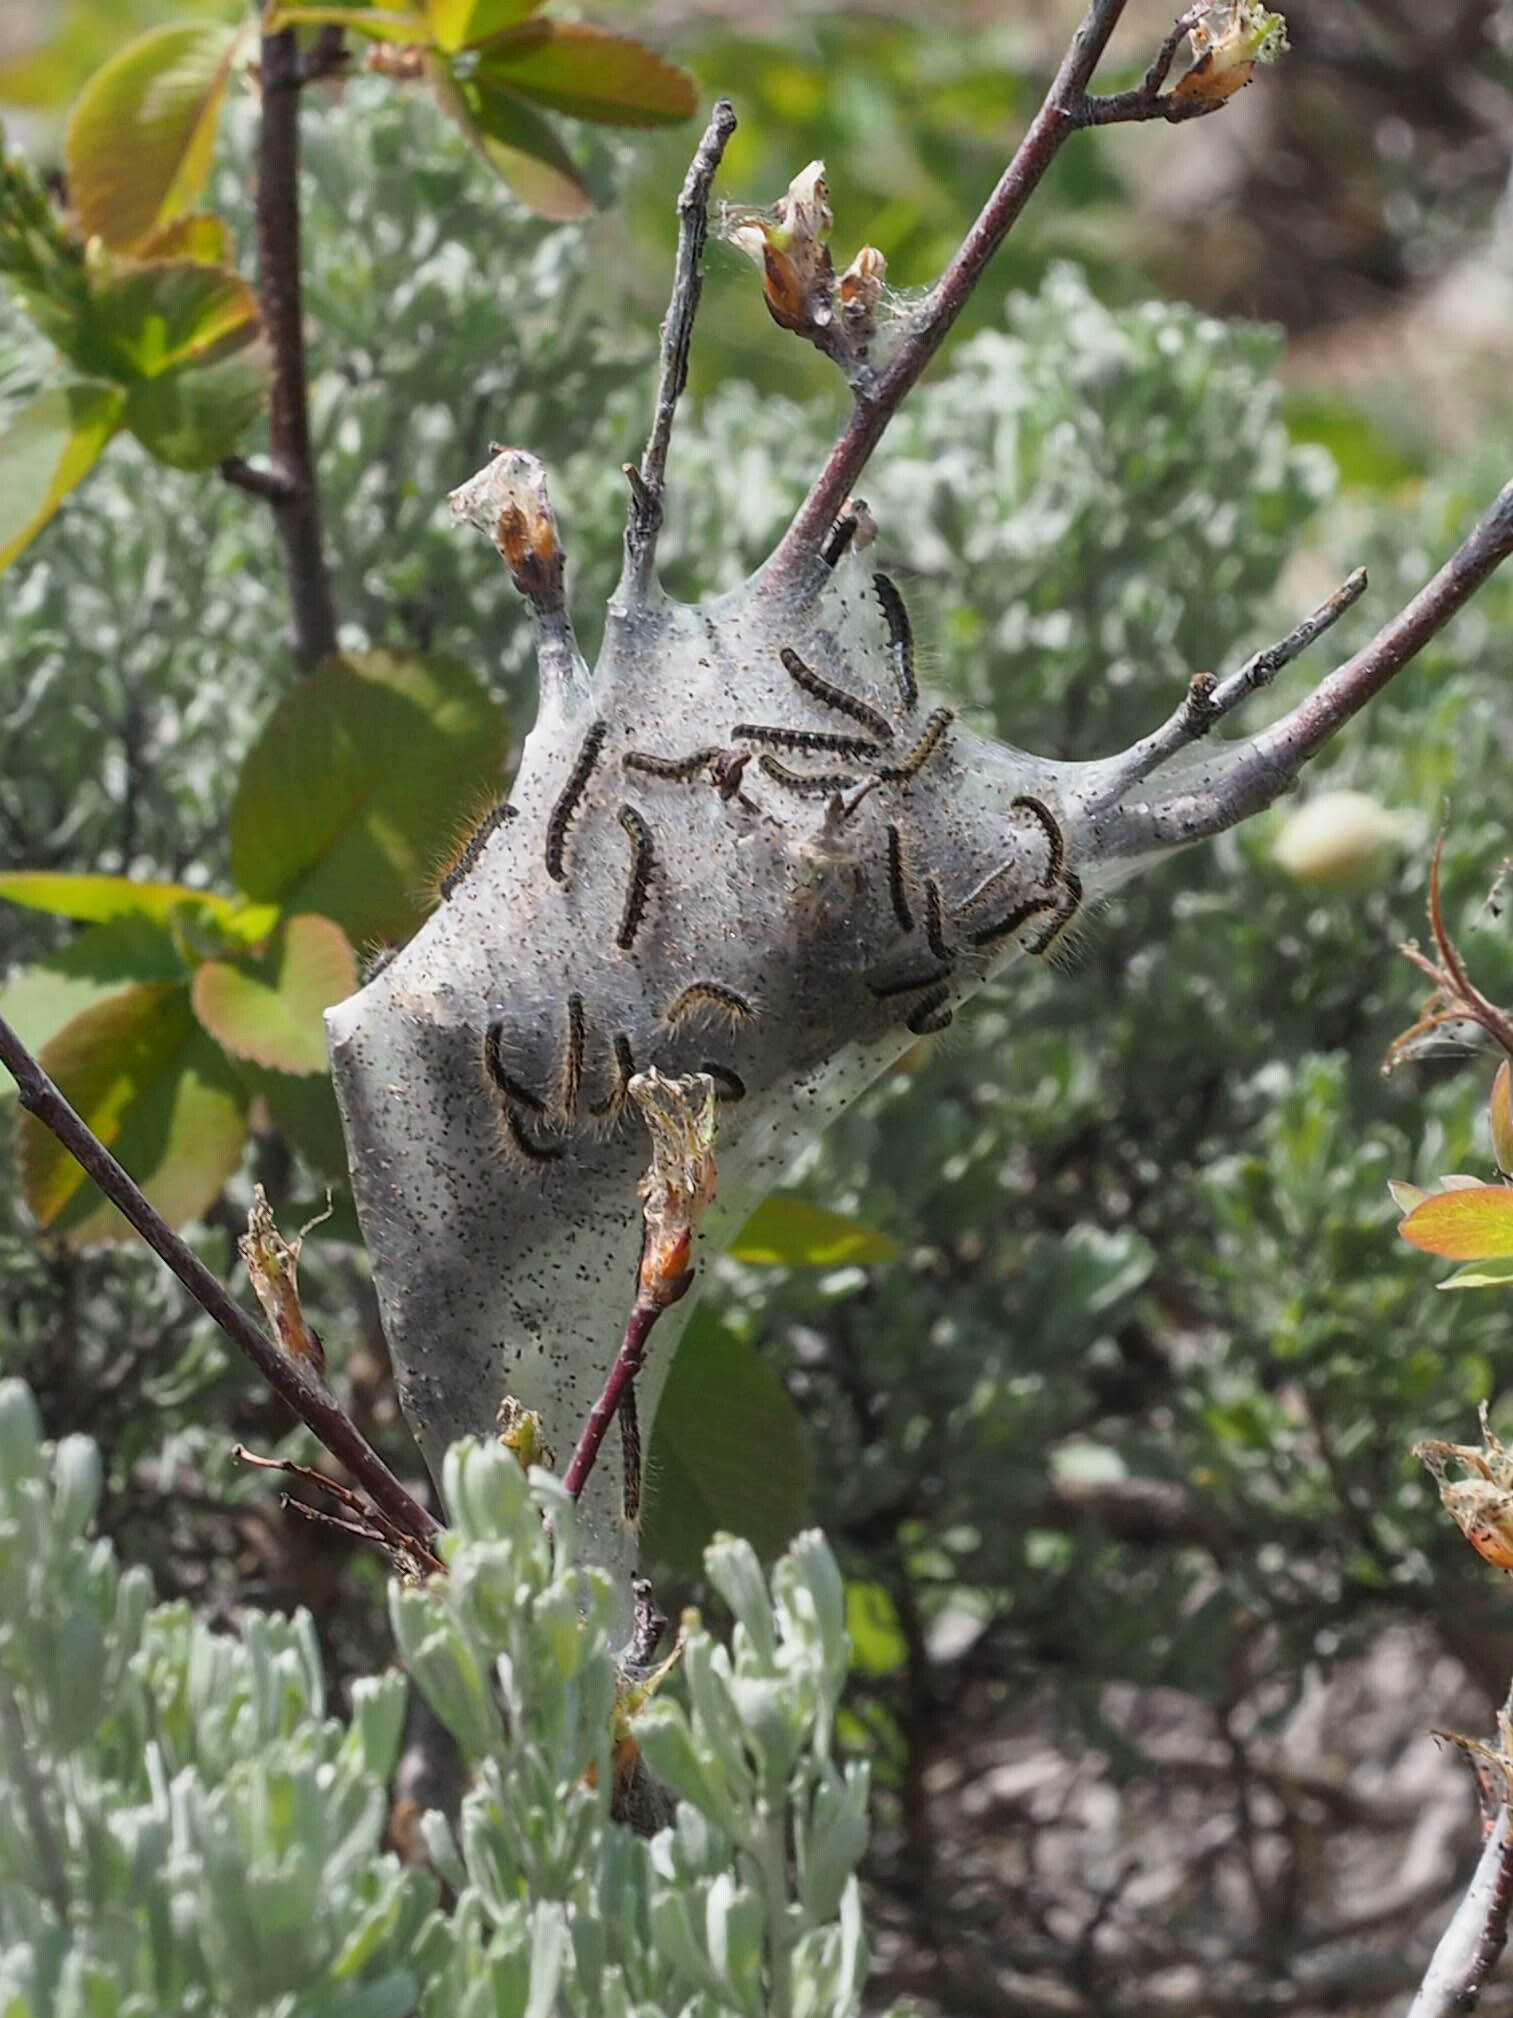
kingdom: Animalia
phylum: Arthropoda
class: Insecta
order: Lepidoptera
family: Lasiocampidae
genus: Malacosoma
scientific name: Malacosoma californica
